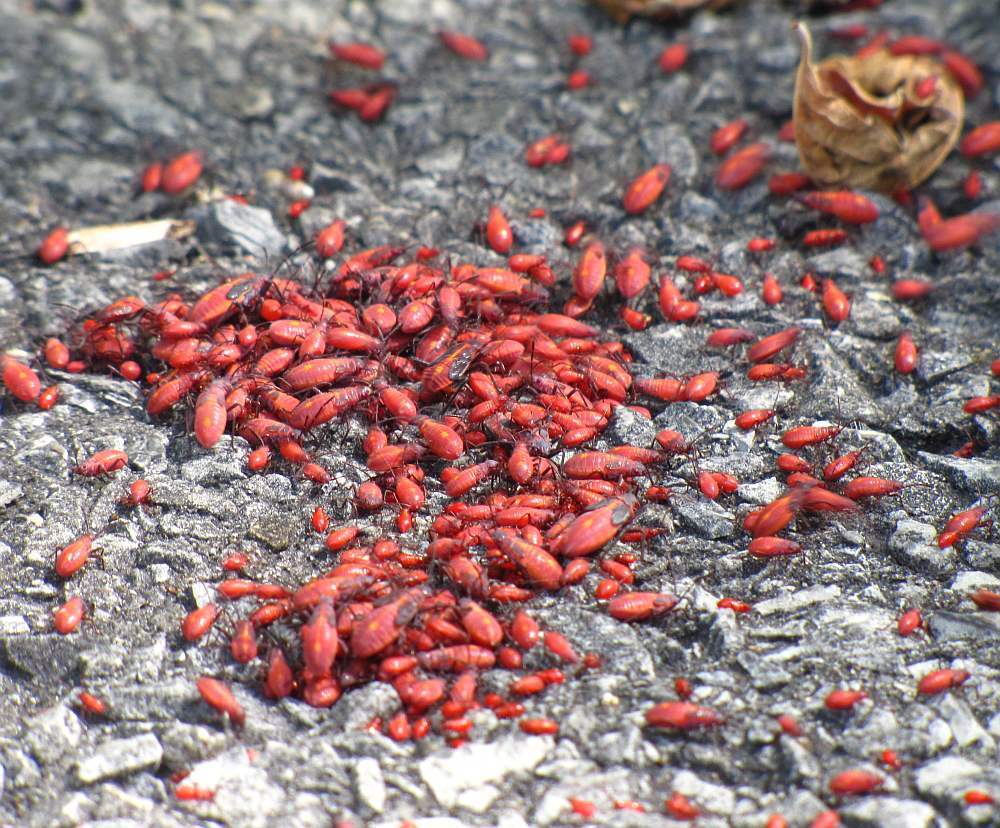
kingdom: Animalia
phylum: Arthropoda
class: Insecta
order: Hemiptera
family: Rhopalidae
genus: Boisea
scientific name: Boisea trivittata
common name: Boxelder bug
